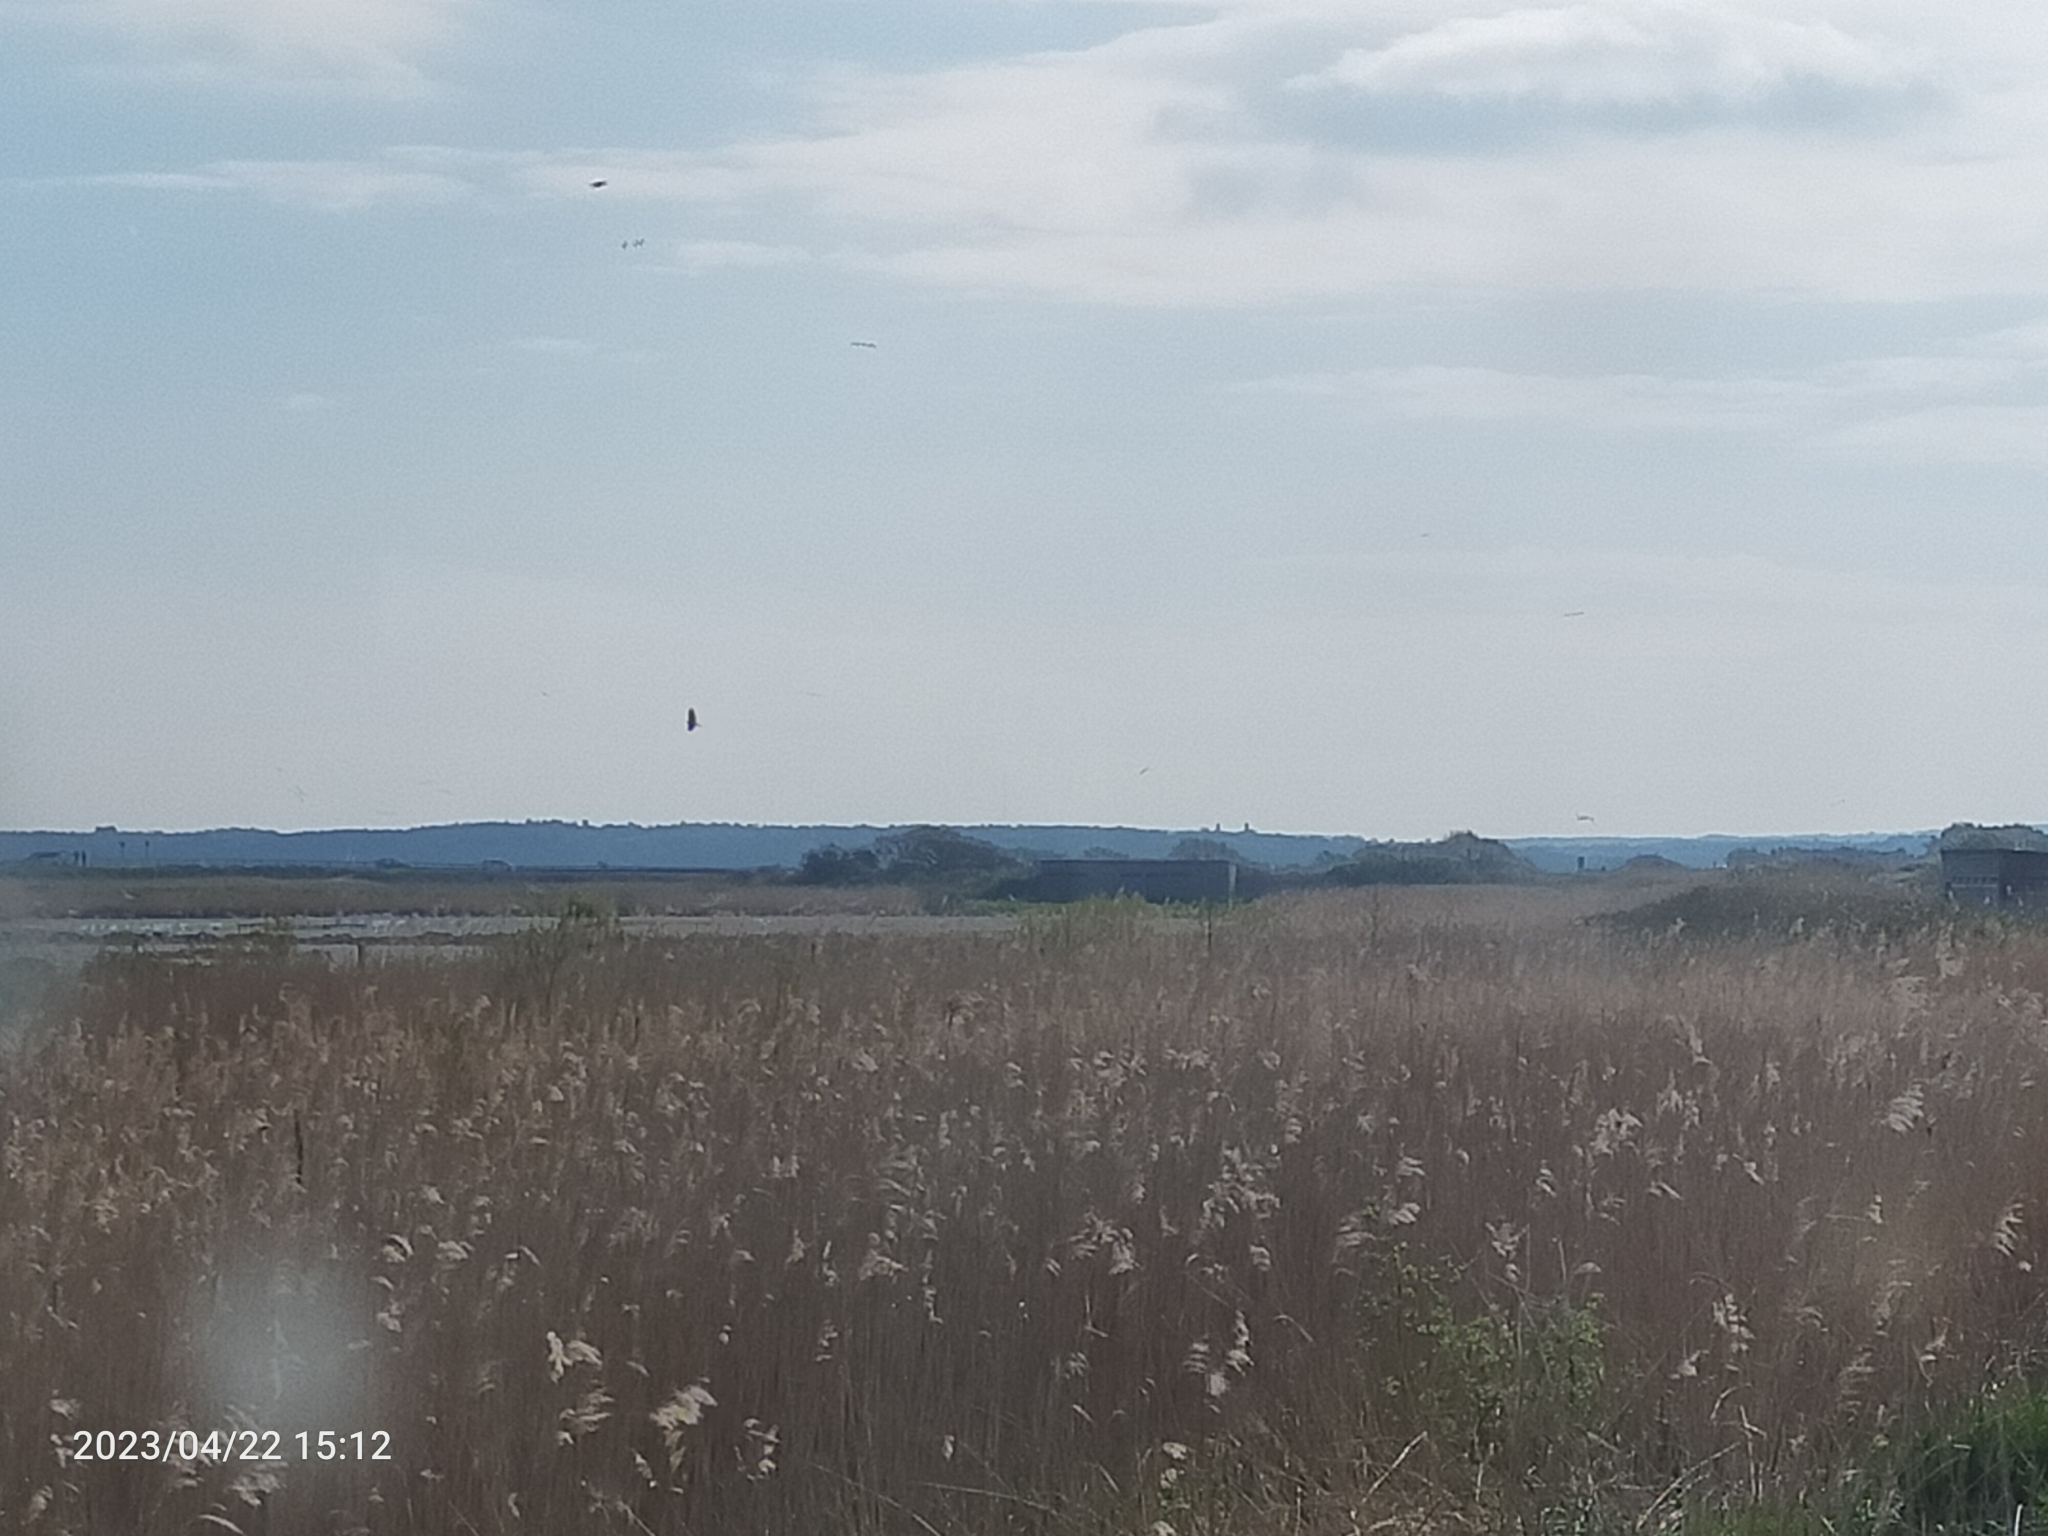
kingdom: Animalia
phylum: Chordata
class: Aves
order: Accipitriformes
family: Accipitridae
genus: Circus
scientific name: Circus aeruginosus
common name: Western marsh harrier
